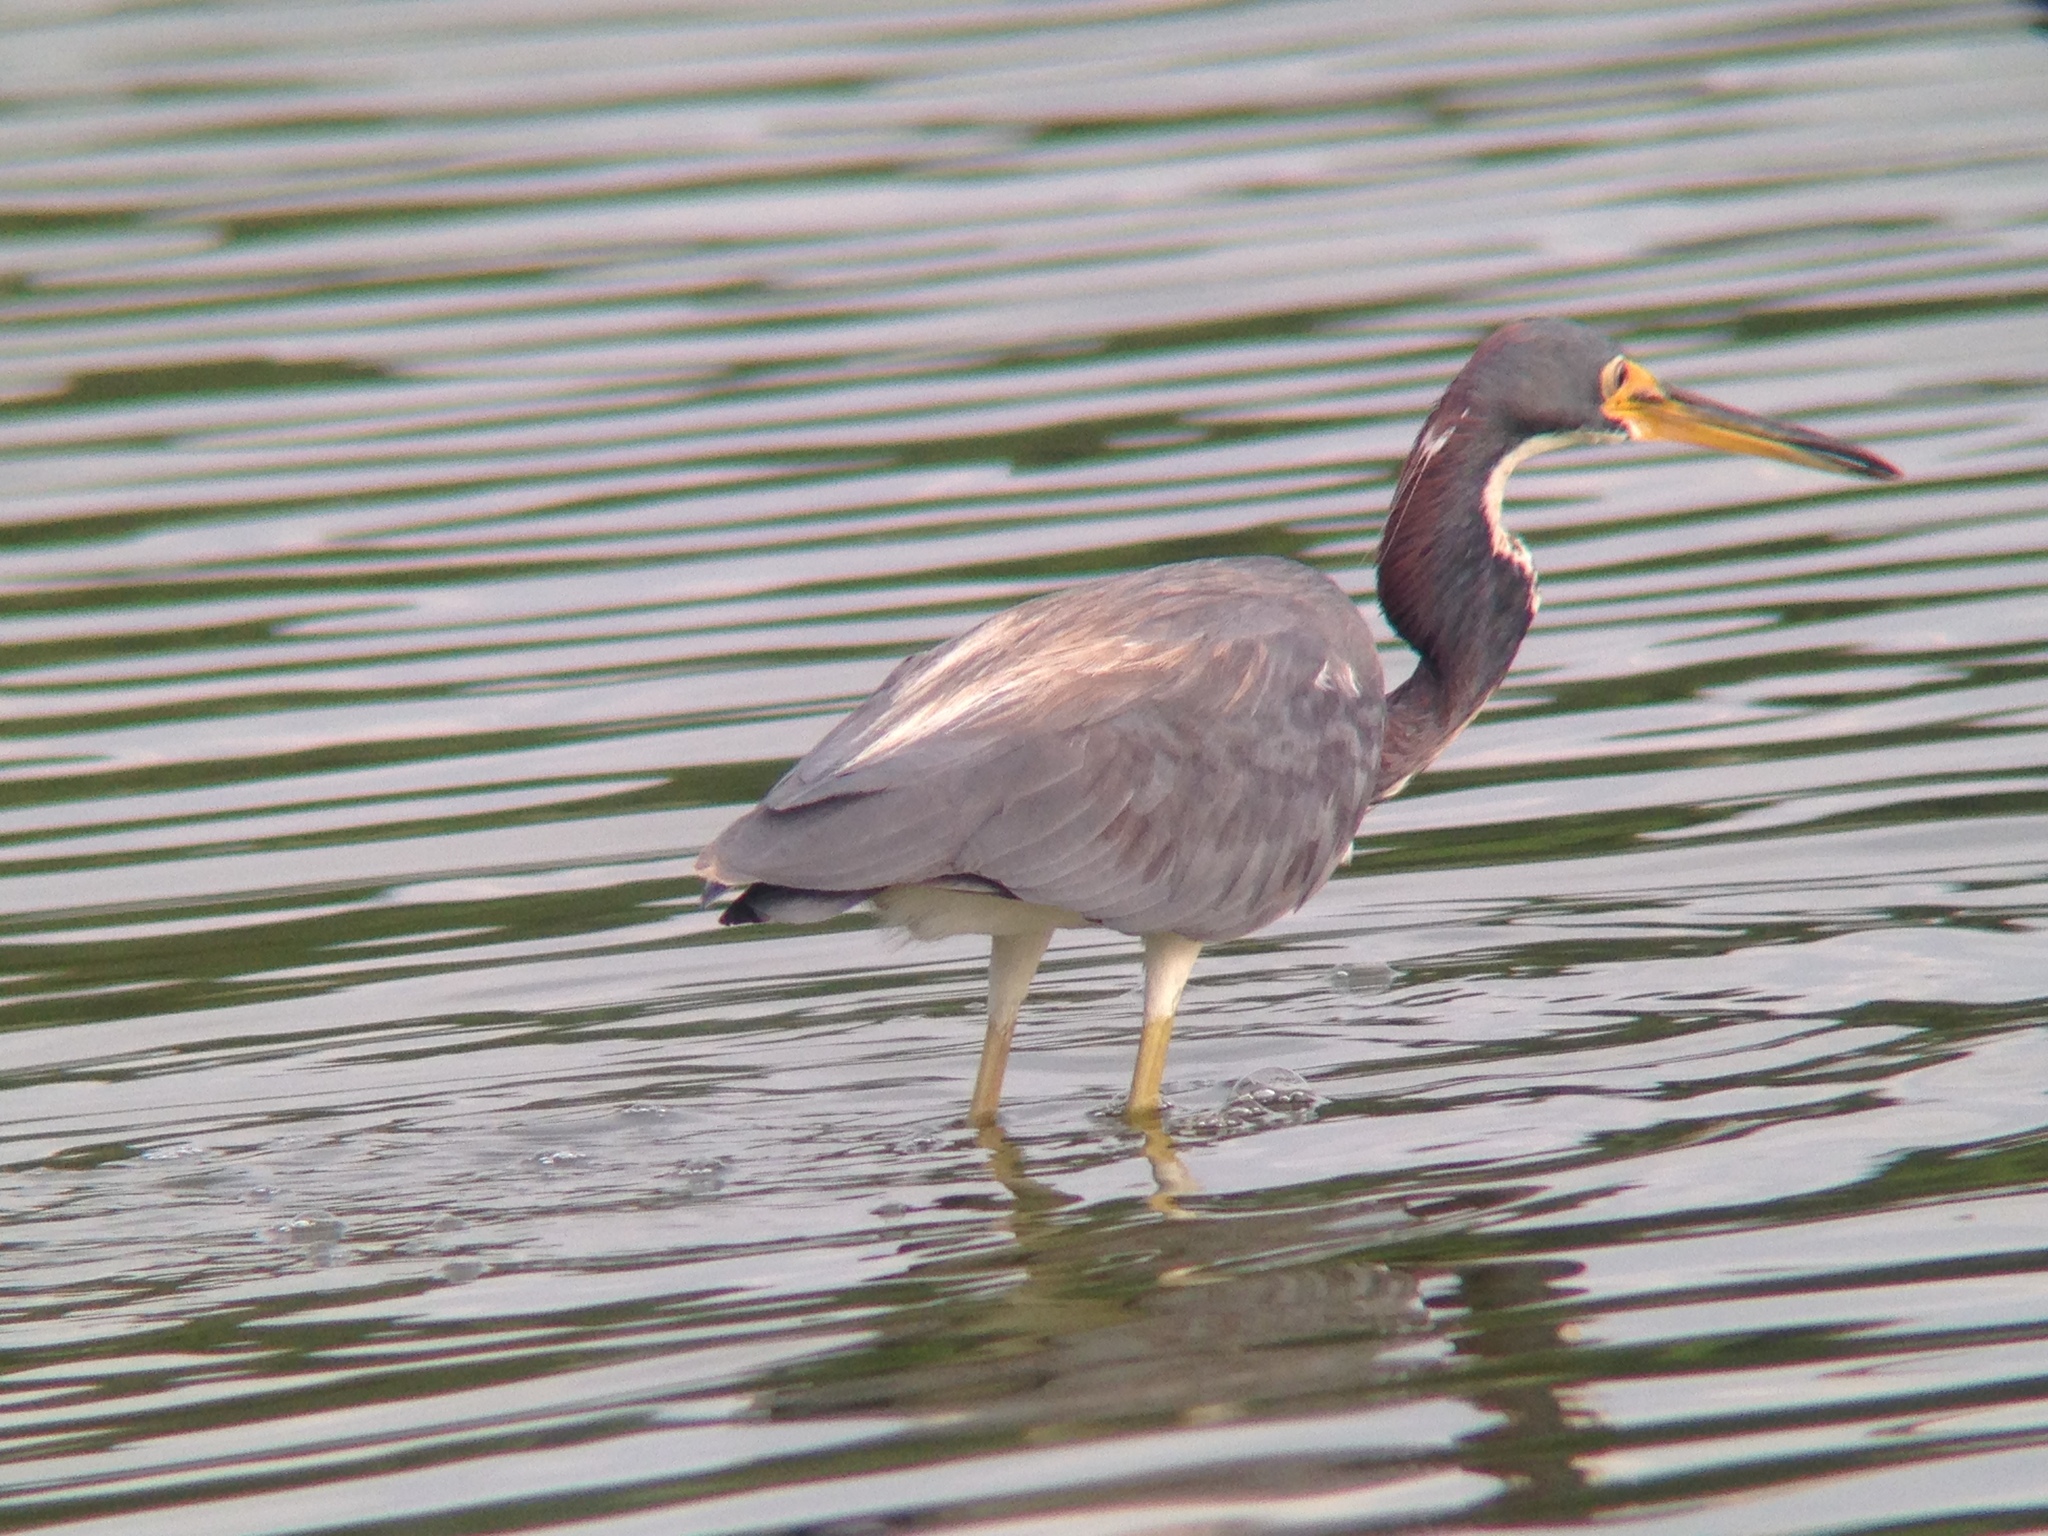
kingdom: Animalia
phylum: Chordata
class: Aves
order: Pelecaniformes
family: Ardeidae
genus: Egretta
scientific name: Egretta tricolor
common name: Tricolored heron
